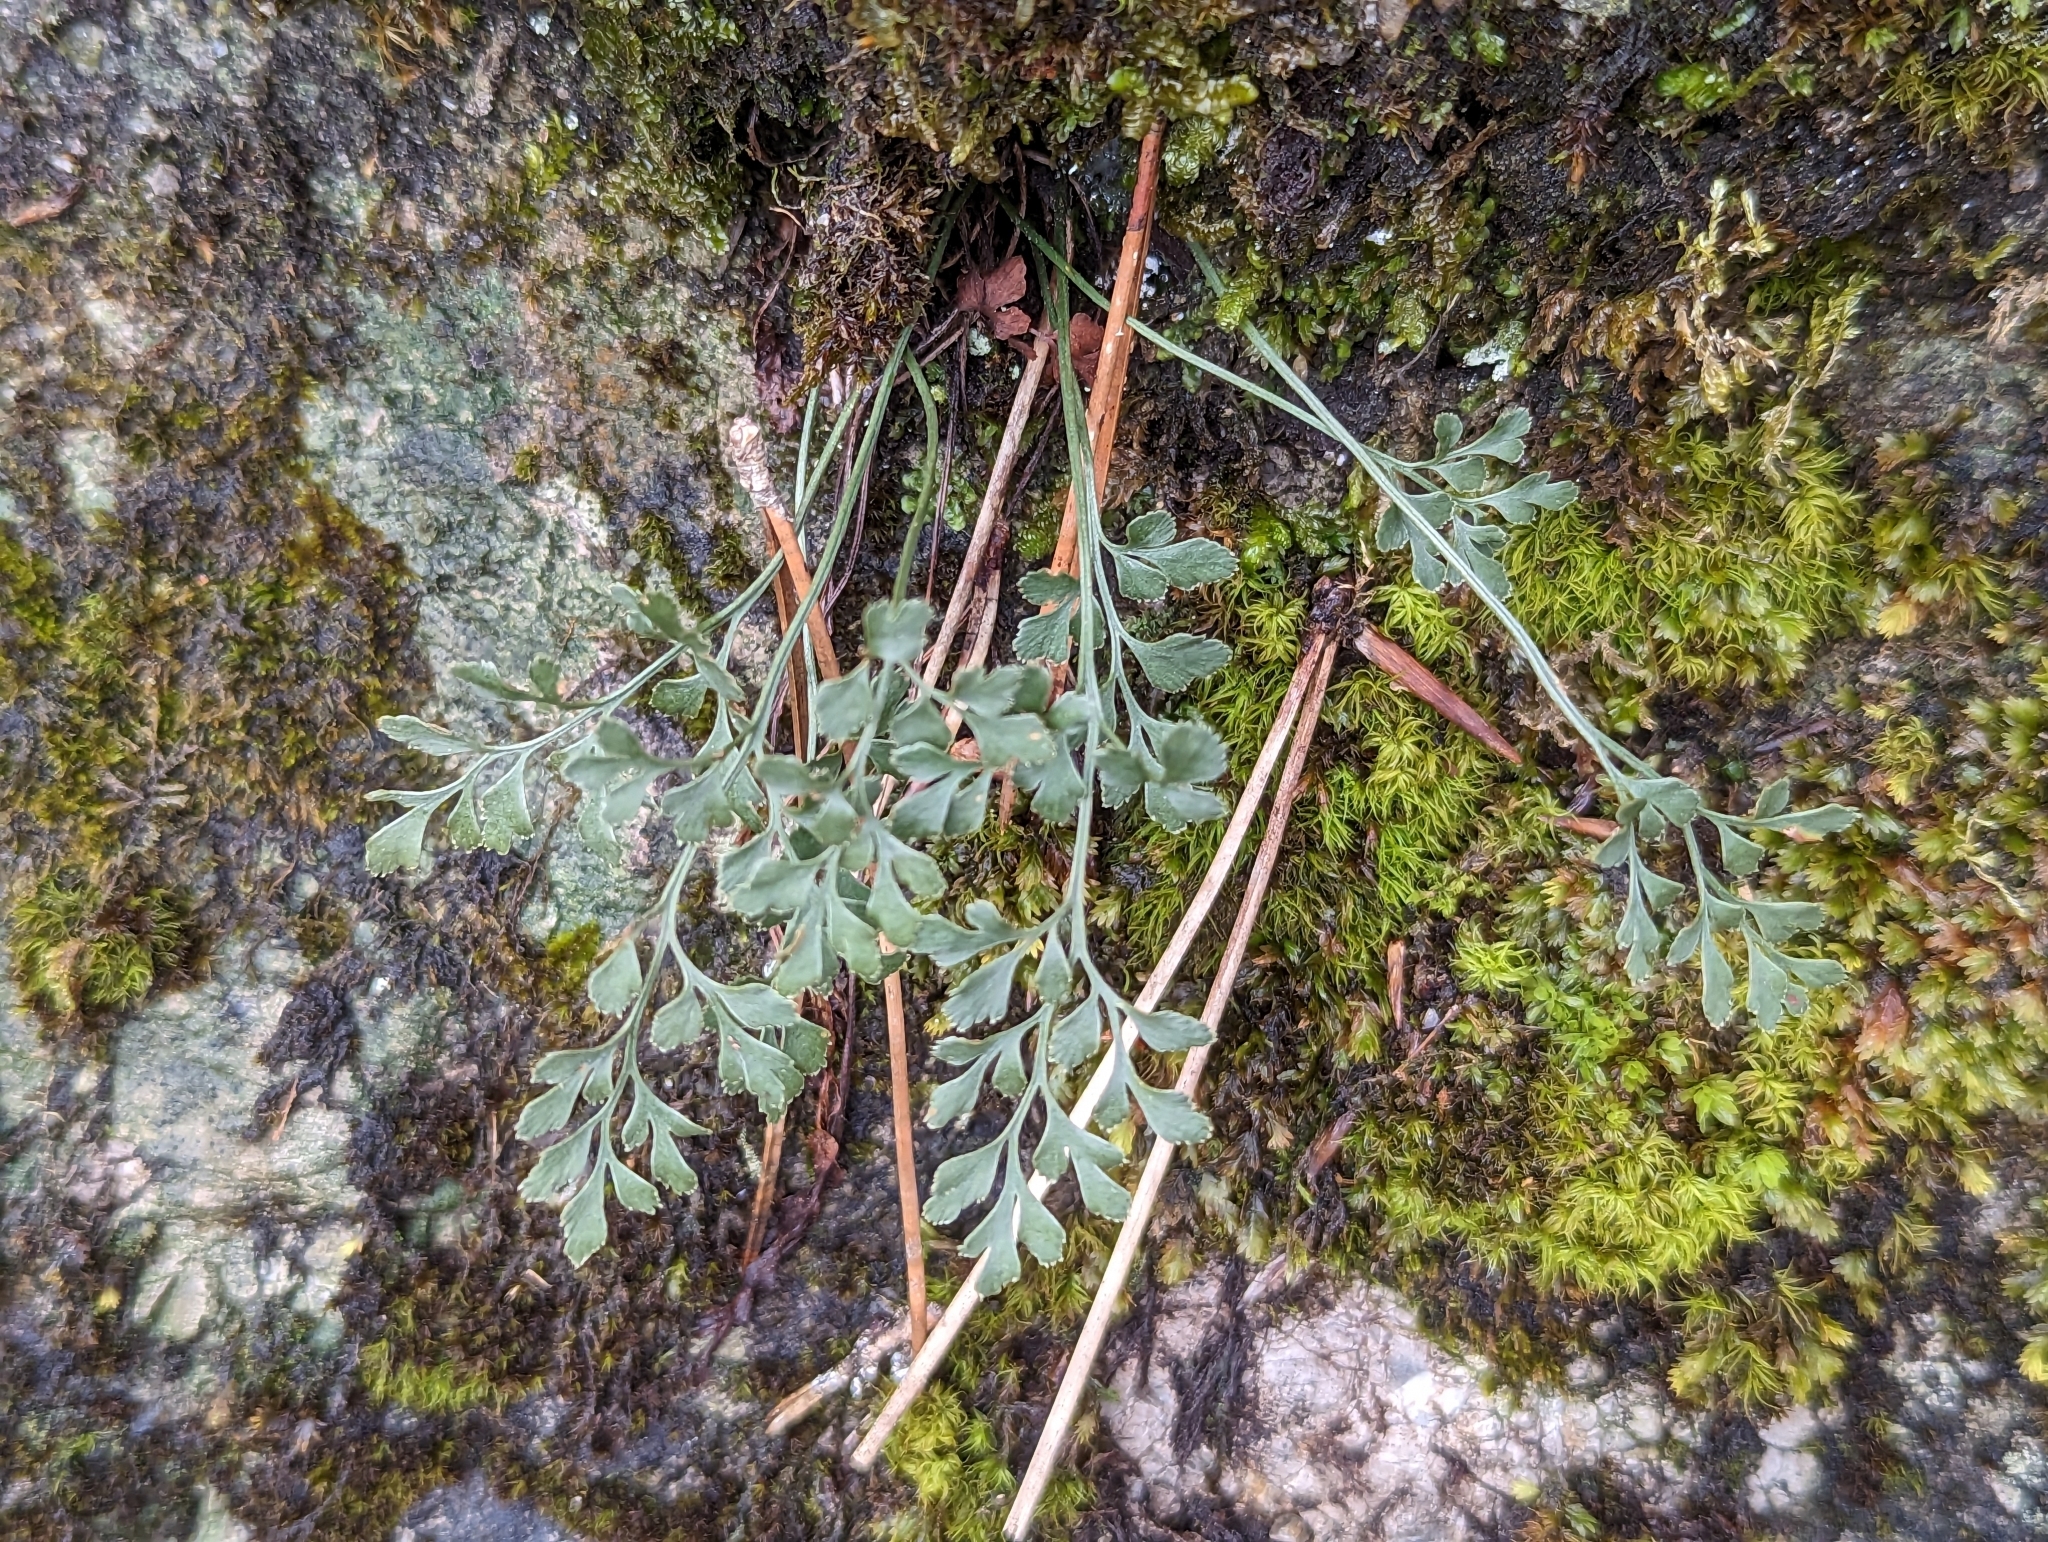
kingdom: Plantae
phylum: Tracheophyta
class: Polypodiopsida
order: Polypodiales
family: Aspleniaceae
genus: Asplenium
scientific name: Asplenium ruta-muraria
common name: Wall-rue
